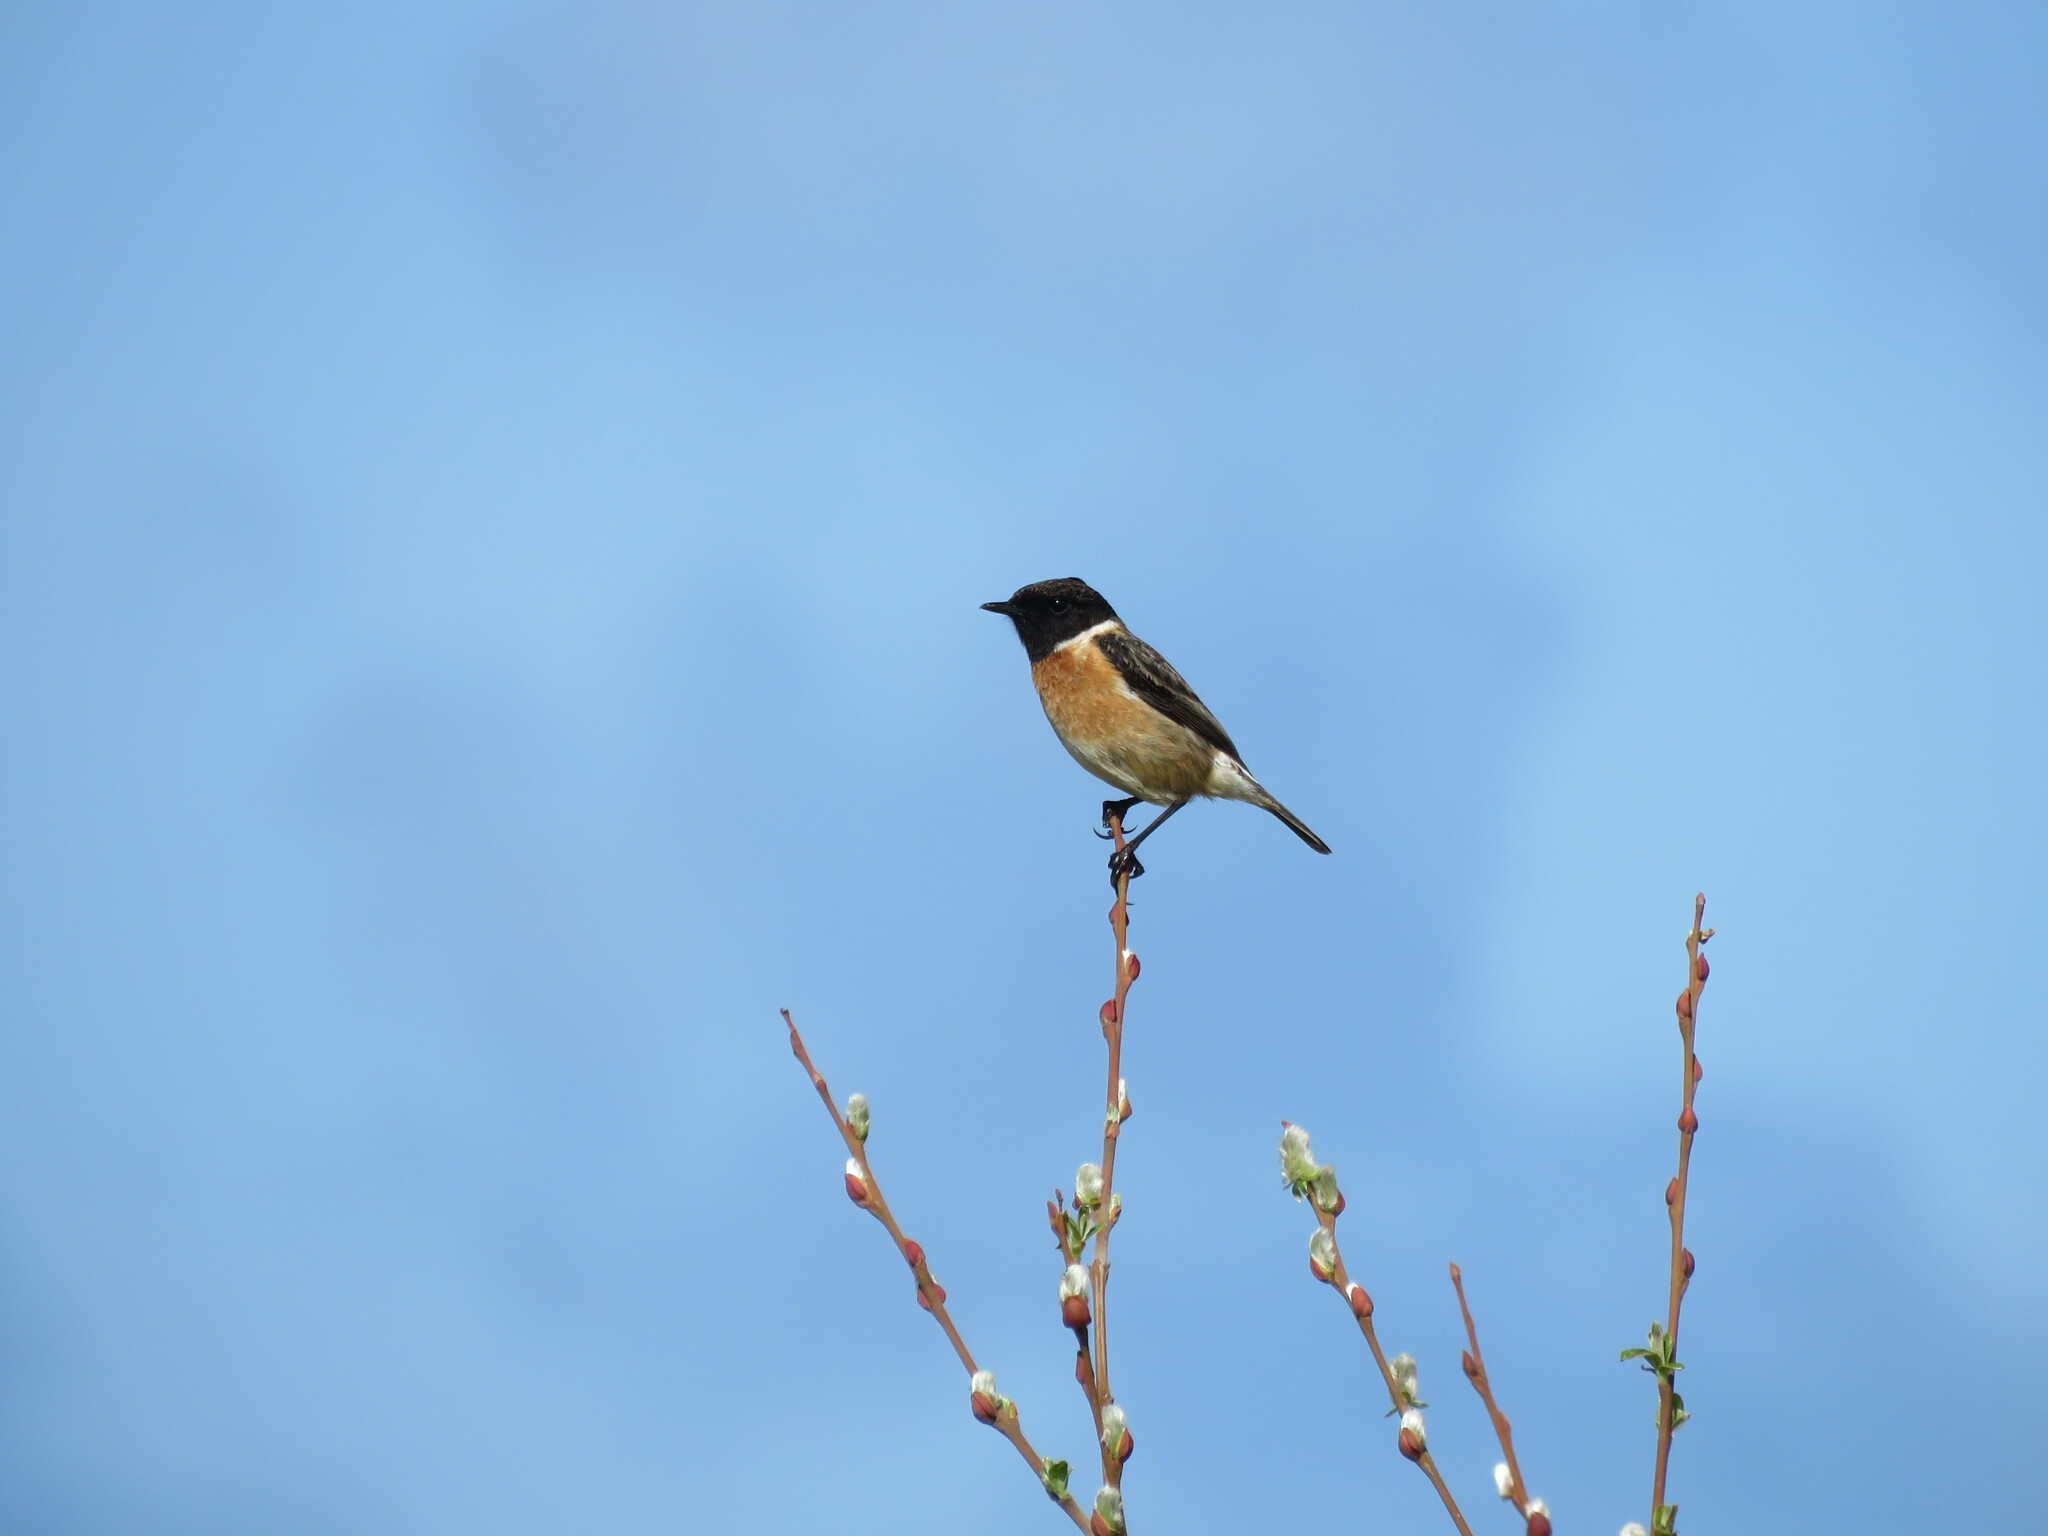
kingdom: Animalia
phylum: Chordata
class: Aves
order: Passeriformes
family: Muscicapidae
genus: Saxicola
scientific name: Saxicola rubicola
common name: European stonechat
